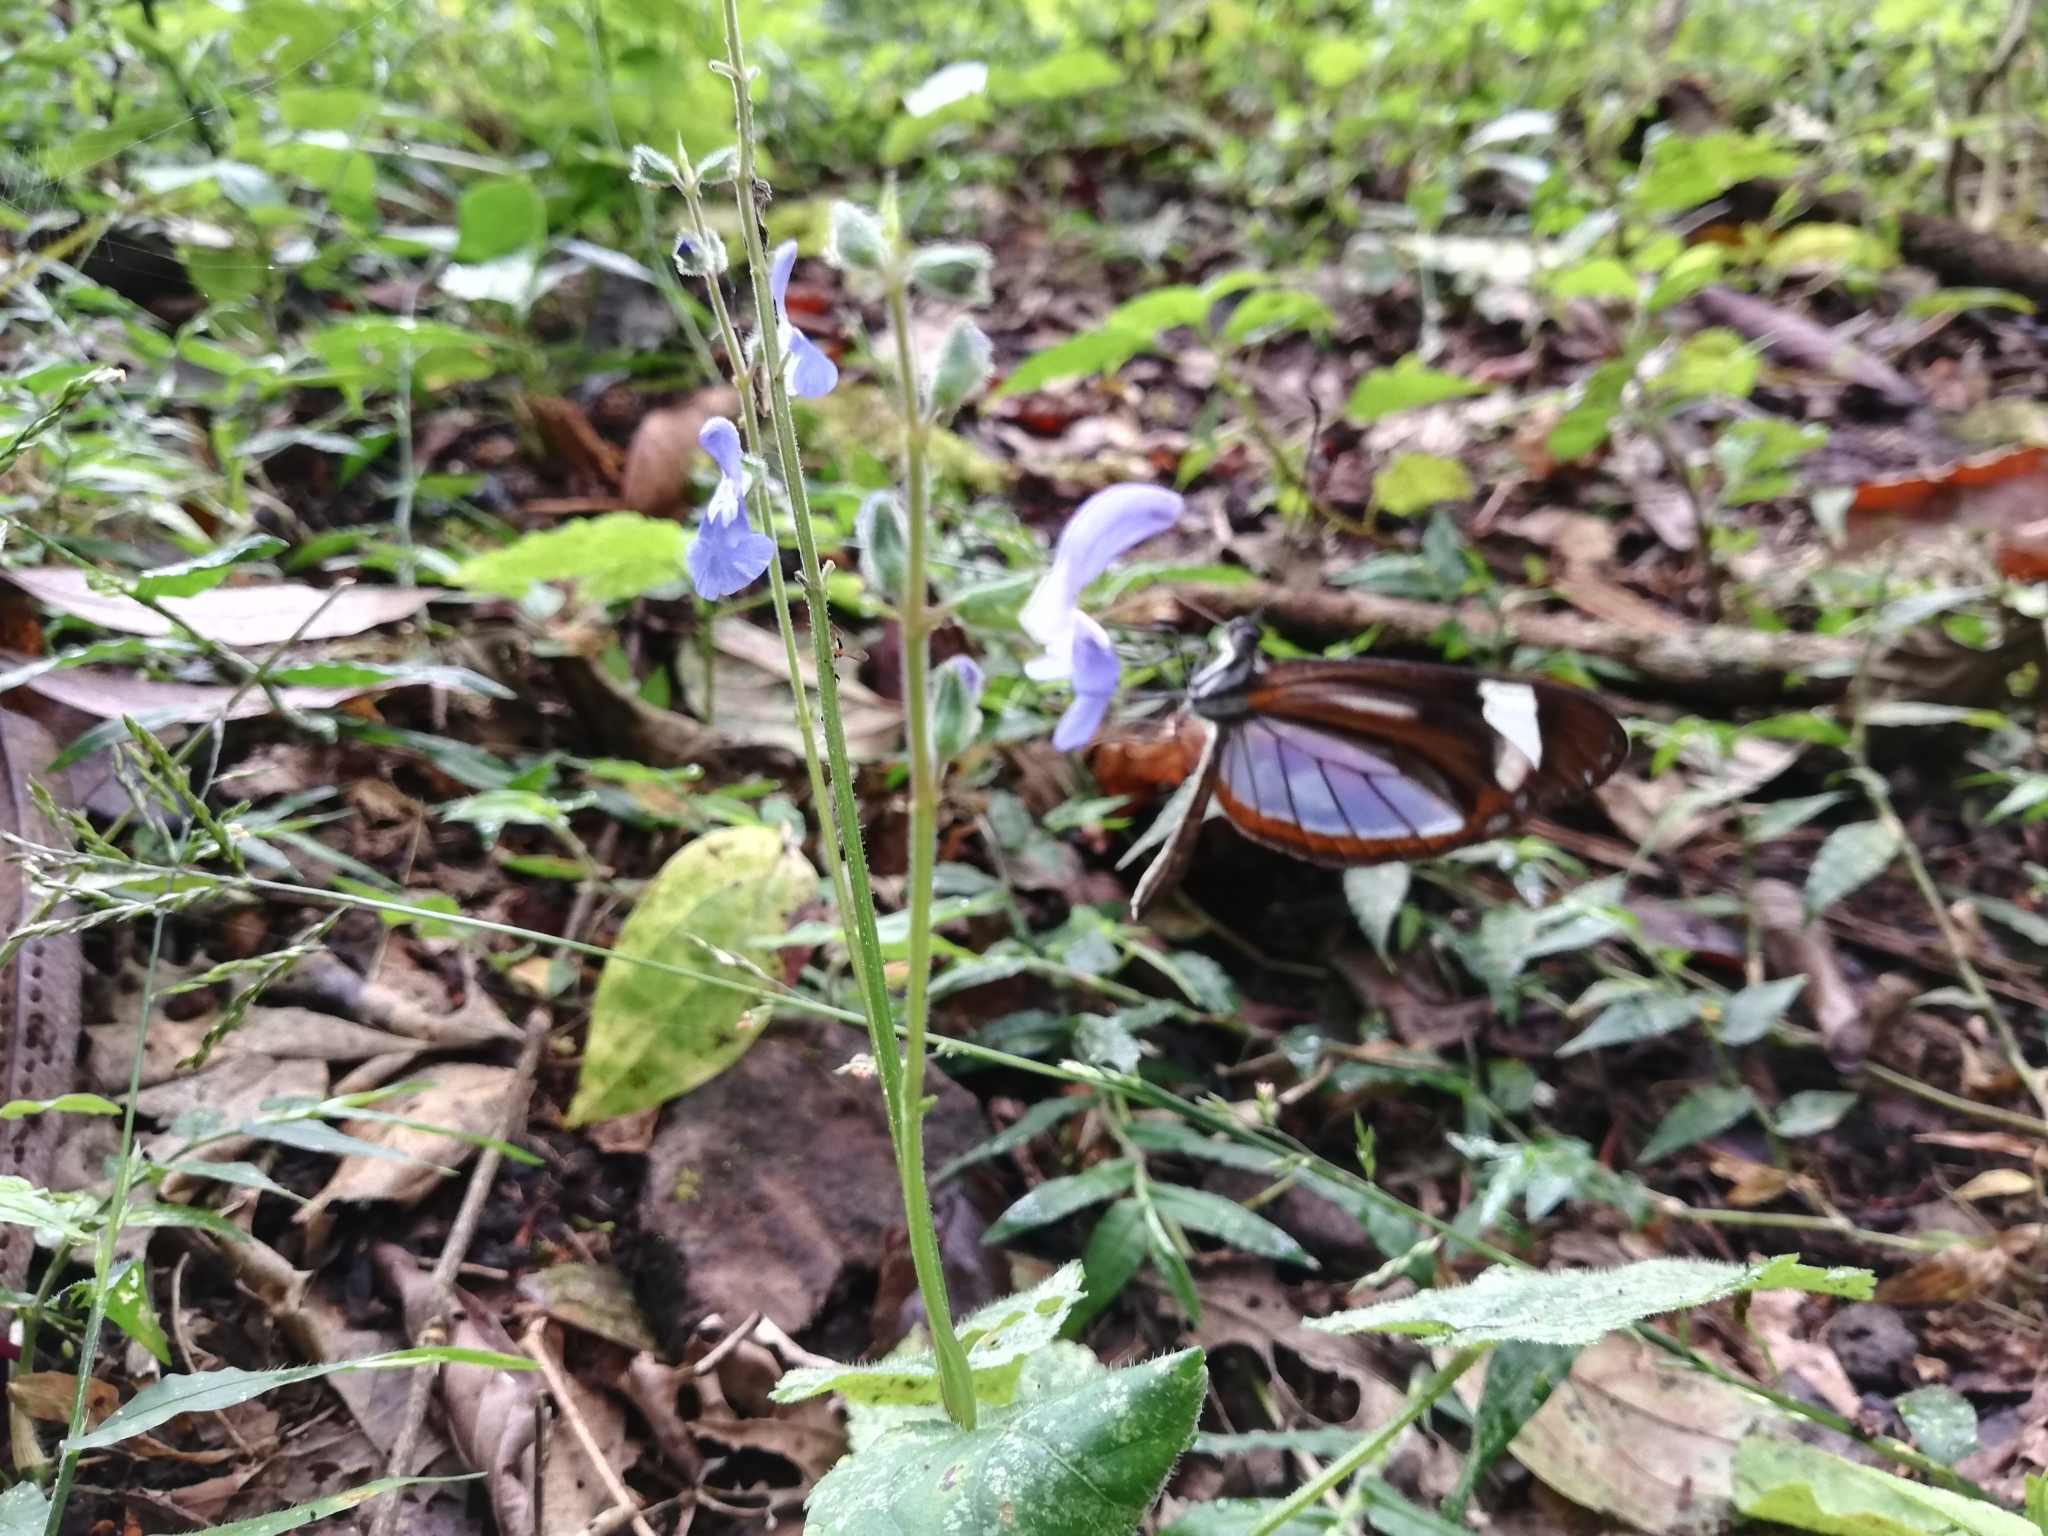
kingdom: Animalia
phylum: Arthropoda
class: Insecta
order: Lepidoptera
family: Pieridae
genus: Dismorphia
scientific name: Dismorphia theucharila
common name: Clearwing mimic-white
